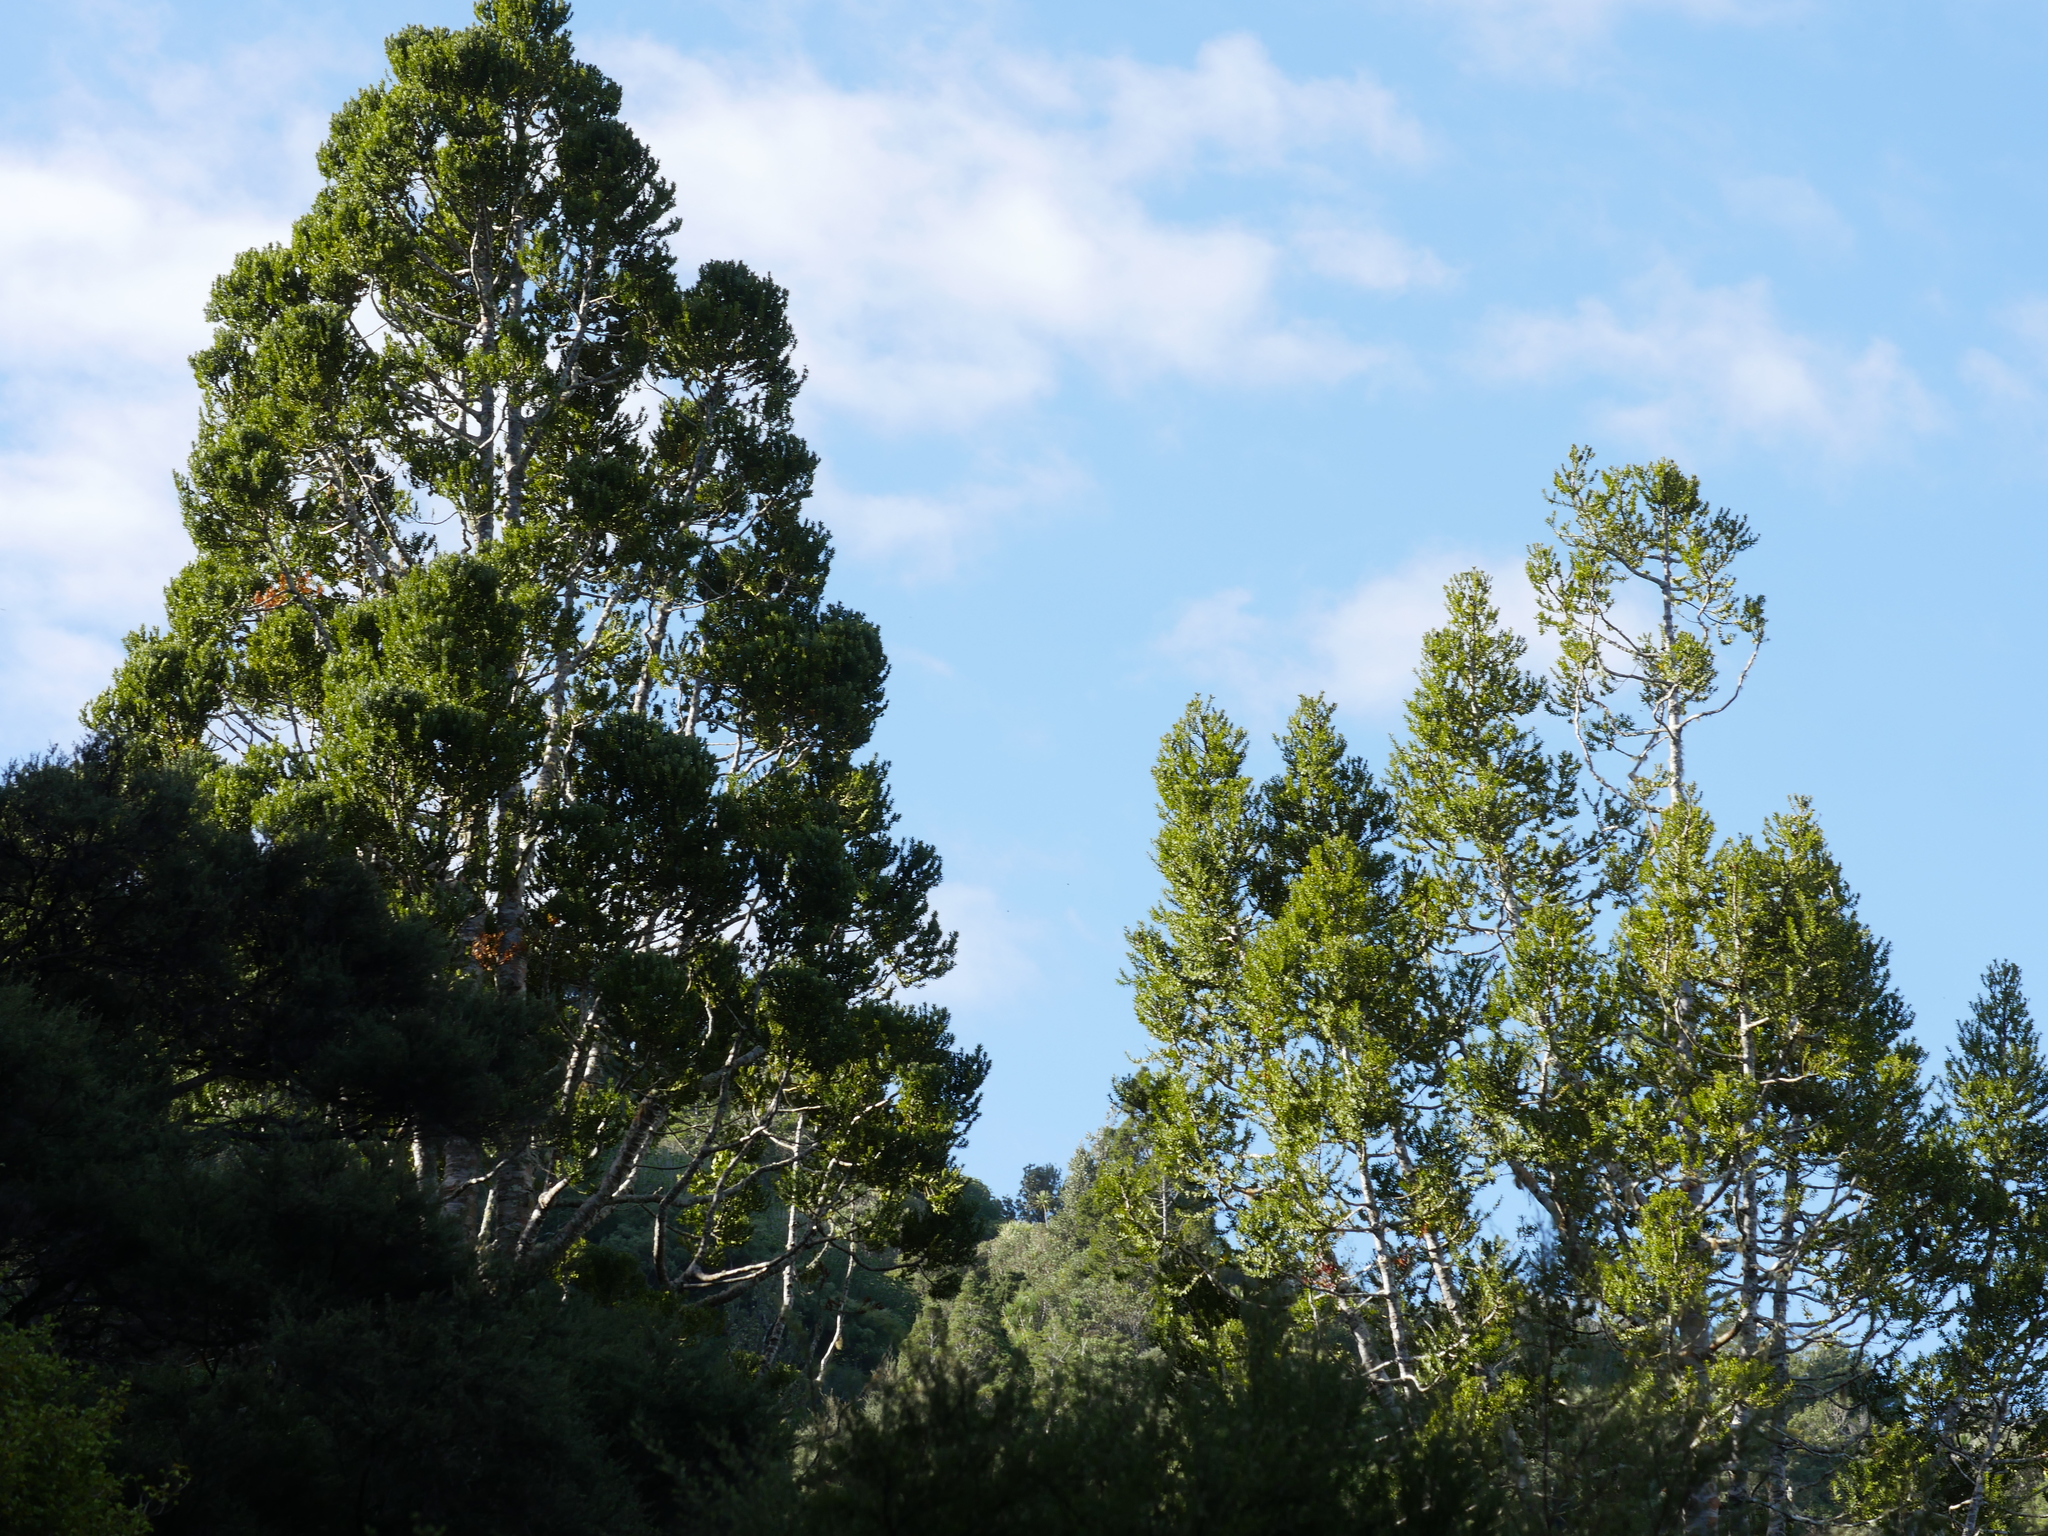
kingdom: Plantae
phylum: Tracheophyta
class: Pinopsida
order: Pinales
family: Araucariaceae
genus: Agathis
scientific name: Agathis australis
